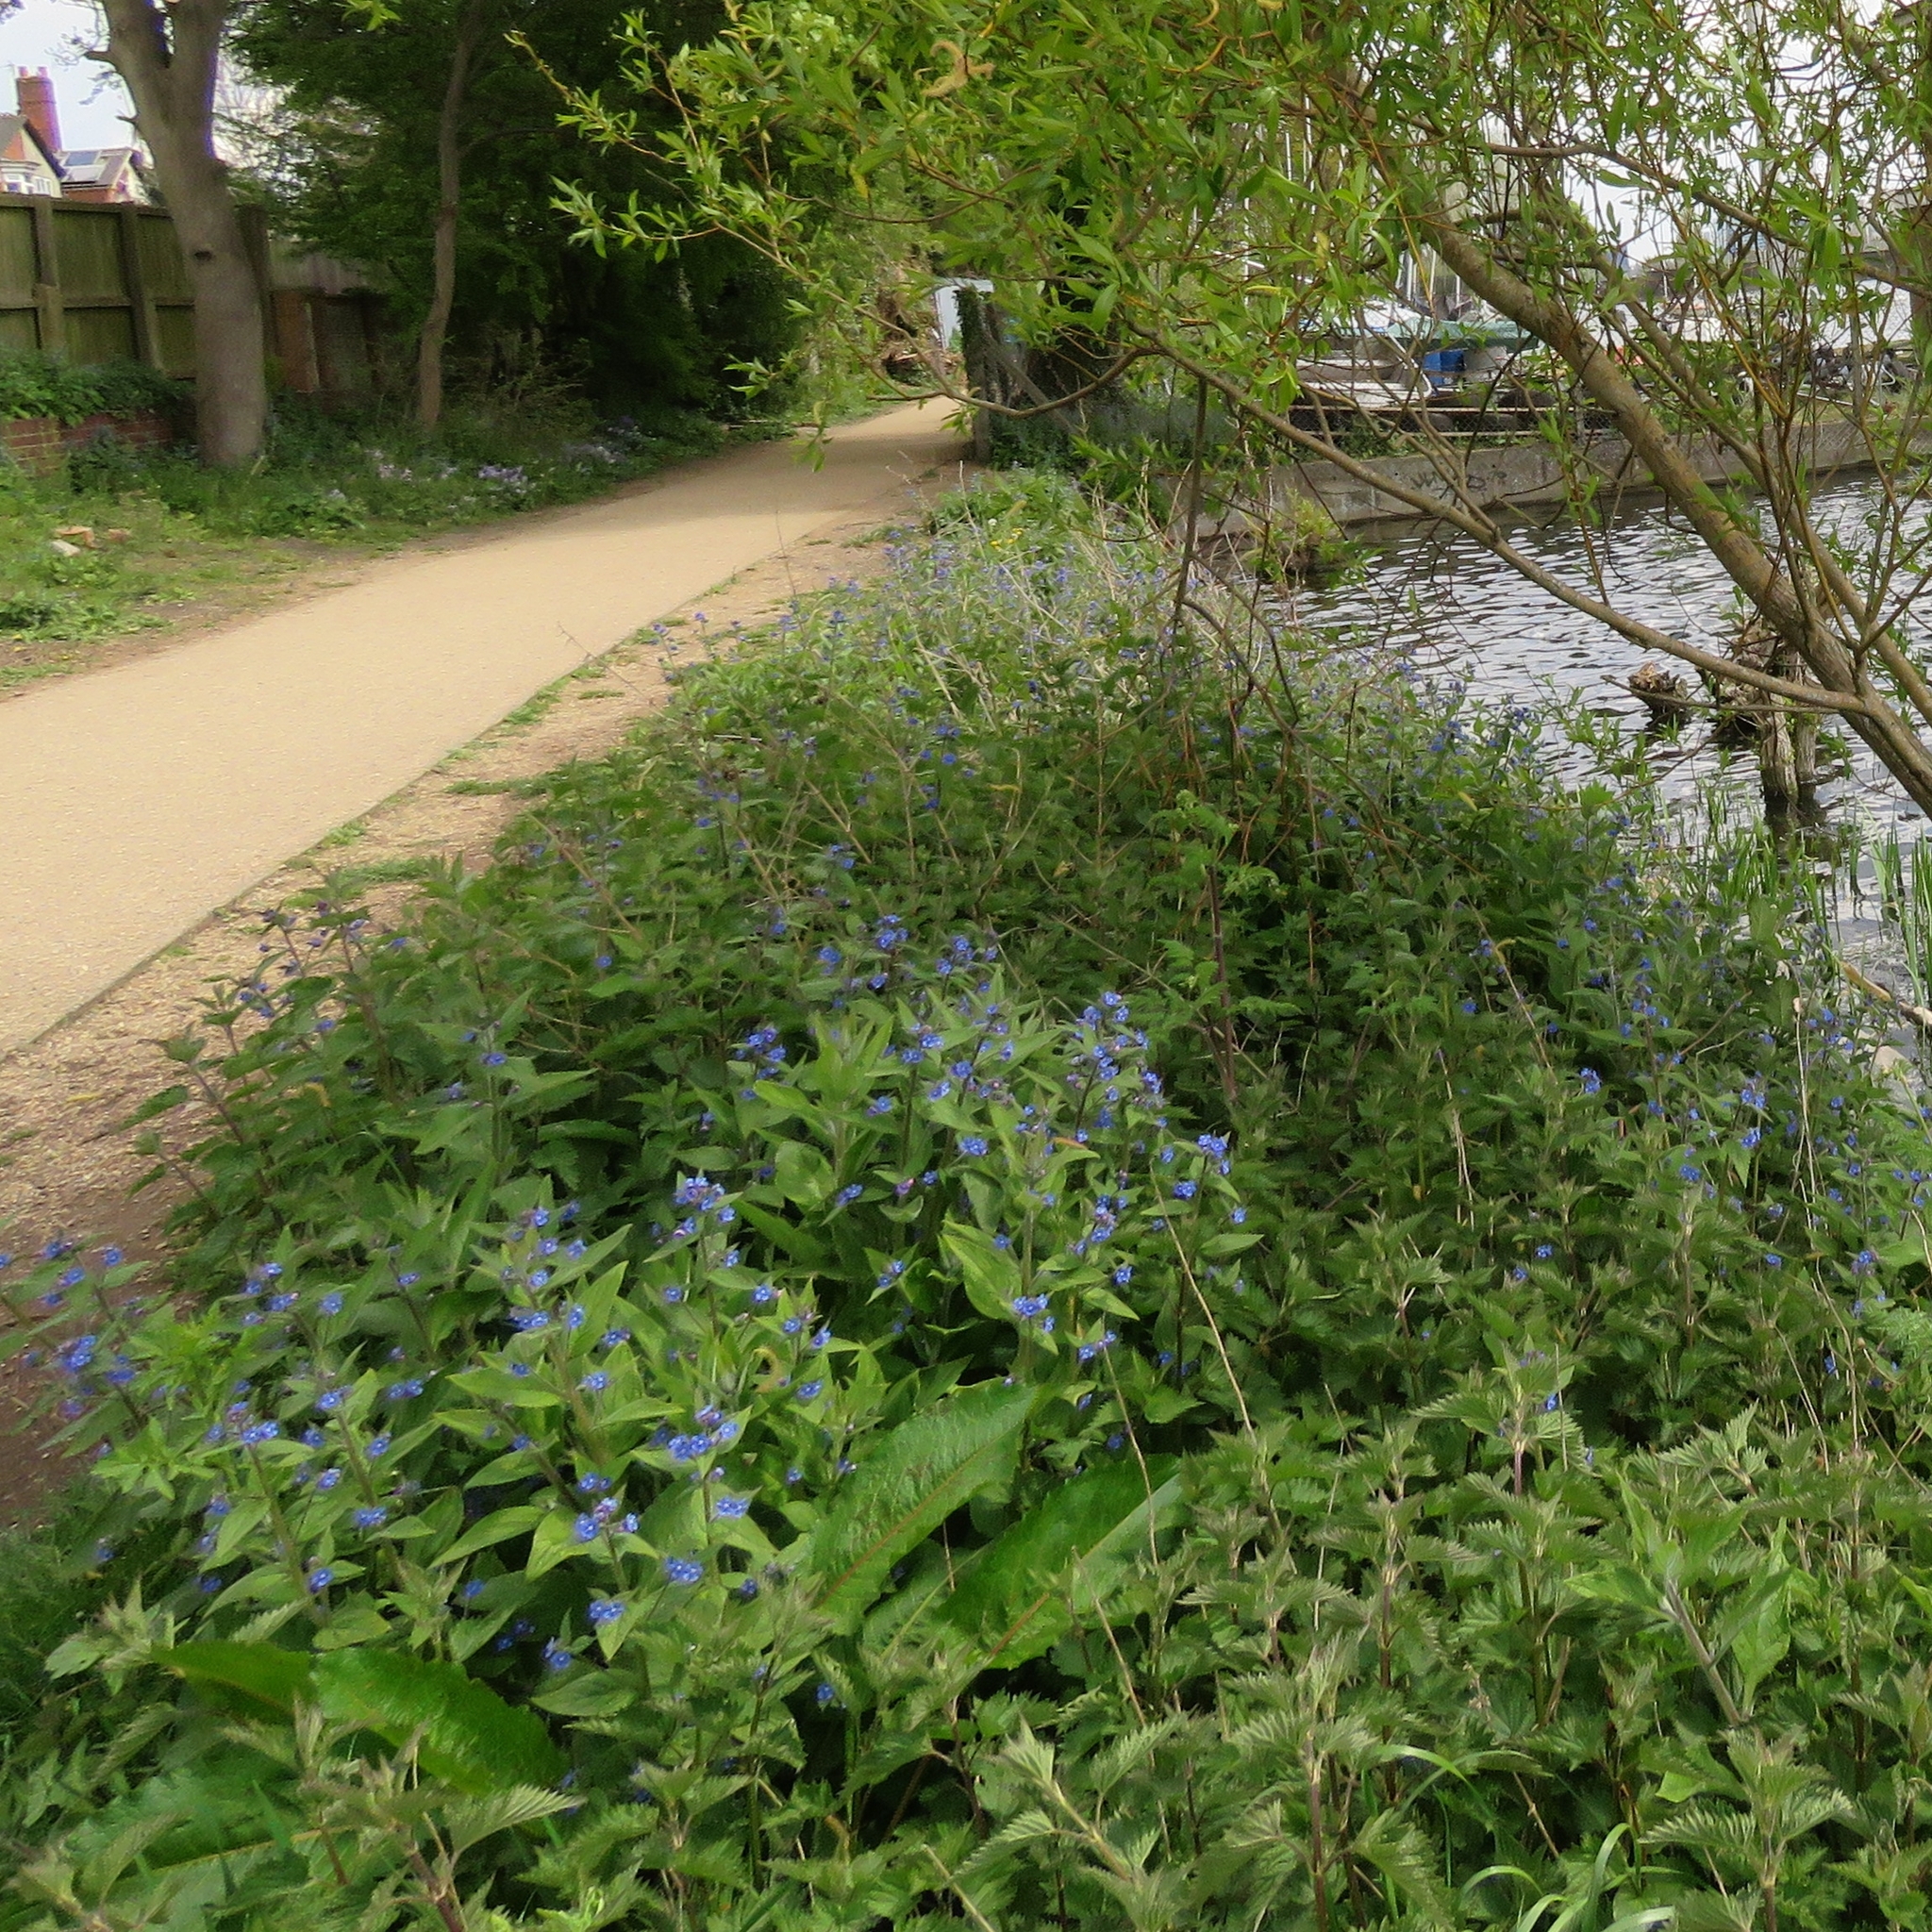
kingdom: Plantae
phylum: Tracheophyta
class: Magnoliopsida
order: Boraginales
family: Boraginaceae
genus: Pentaglottis
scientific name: Pentaglottis sempervirens
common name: Green alkanet
